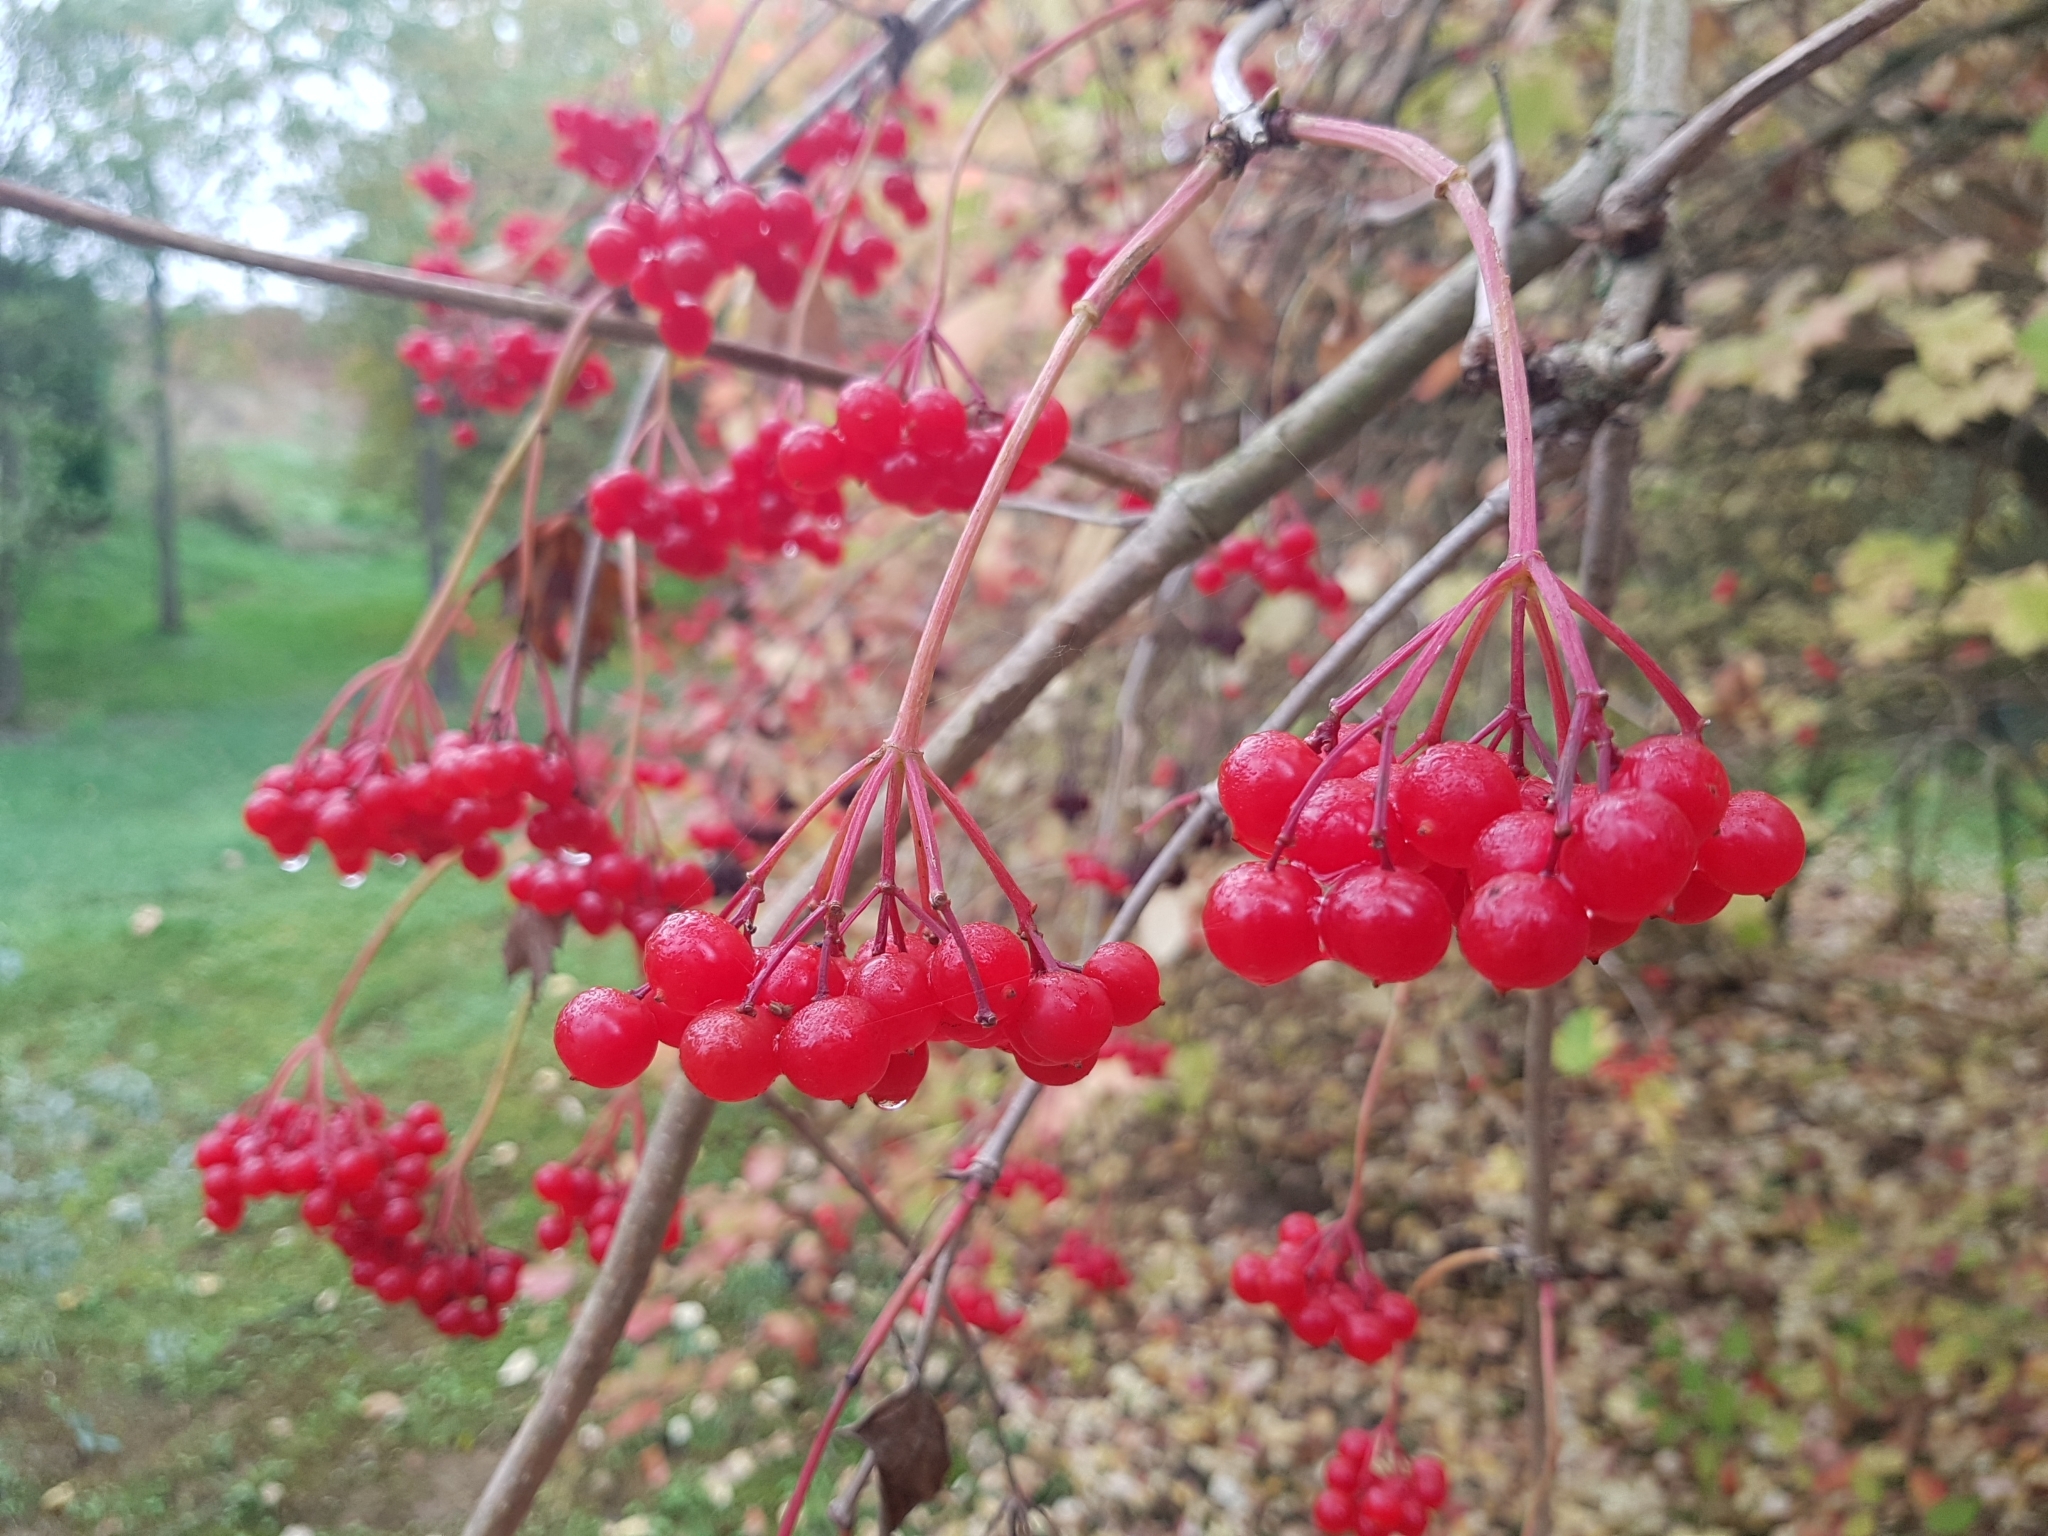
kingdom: Plantae
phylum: Tracheophyta
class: Magnoliopsida
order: Dipsacales
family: Viburnaceae
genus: Viburnum
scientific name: Viburnum opulus
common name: Guelder-rose
